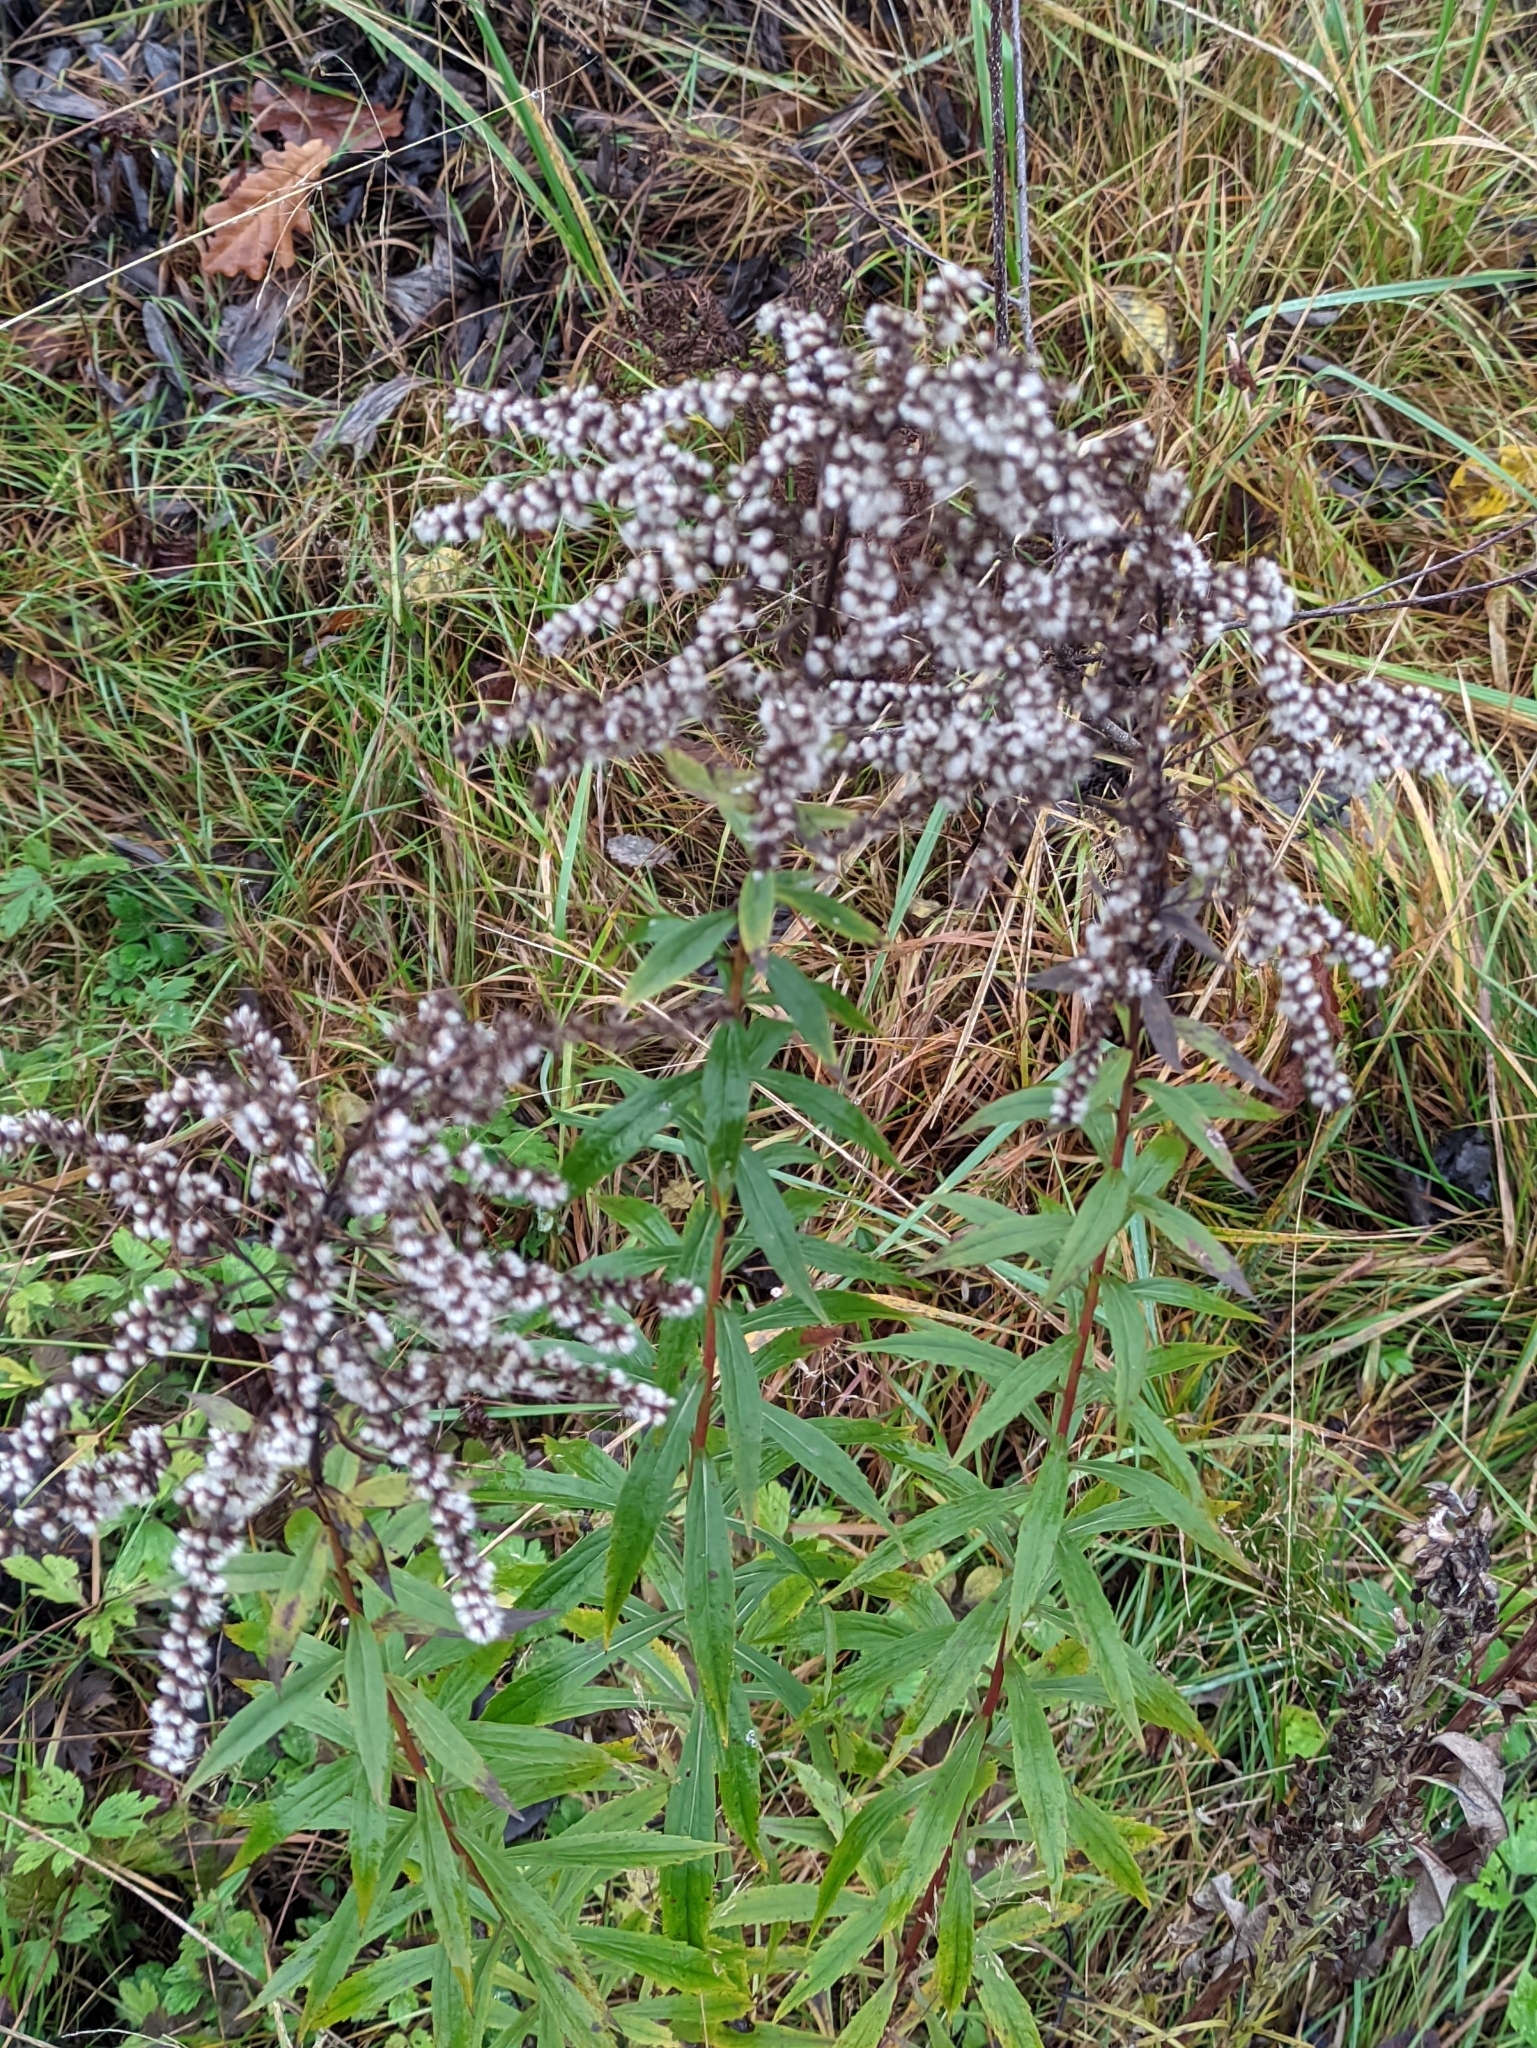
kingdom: Plantae
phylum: Tracheophyta
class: Magnoliopsida
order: Asterales
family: Asteraceae
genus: Solidago
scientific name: Solidago canadensis
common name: Canada goldenrod
